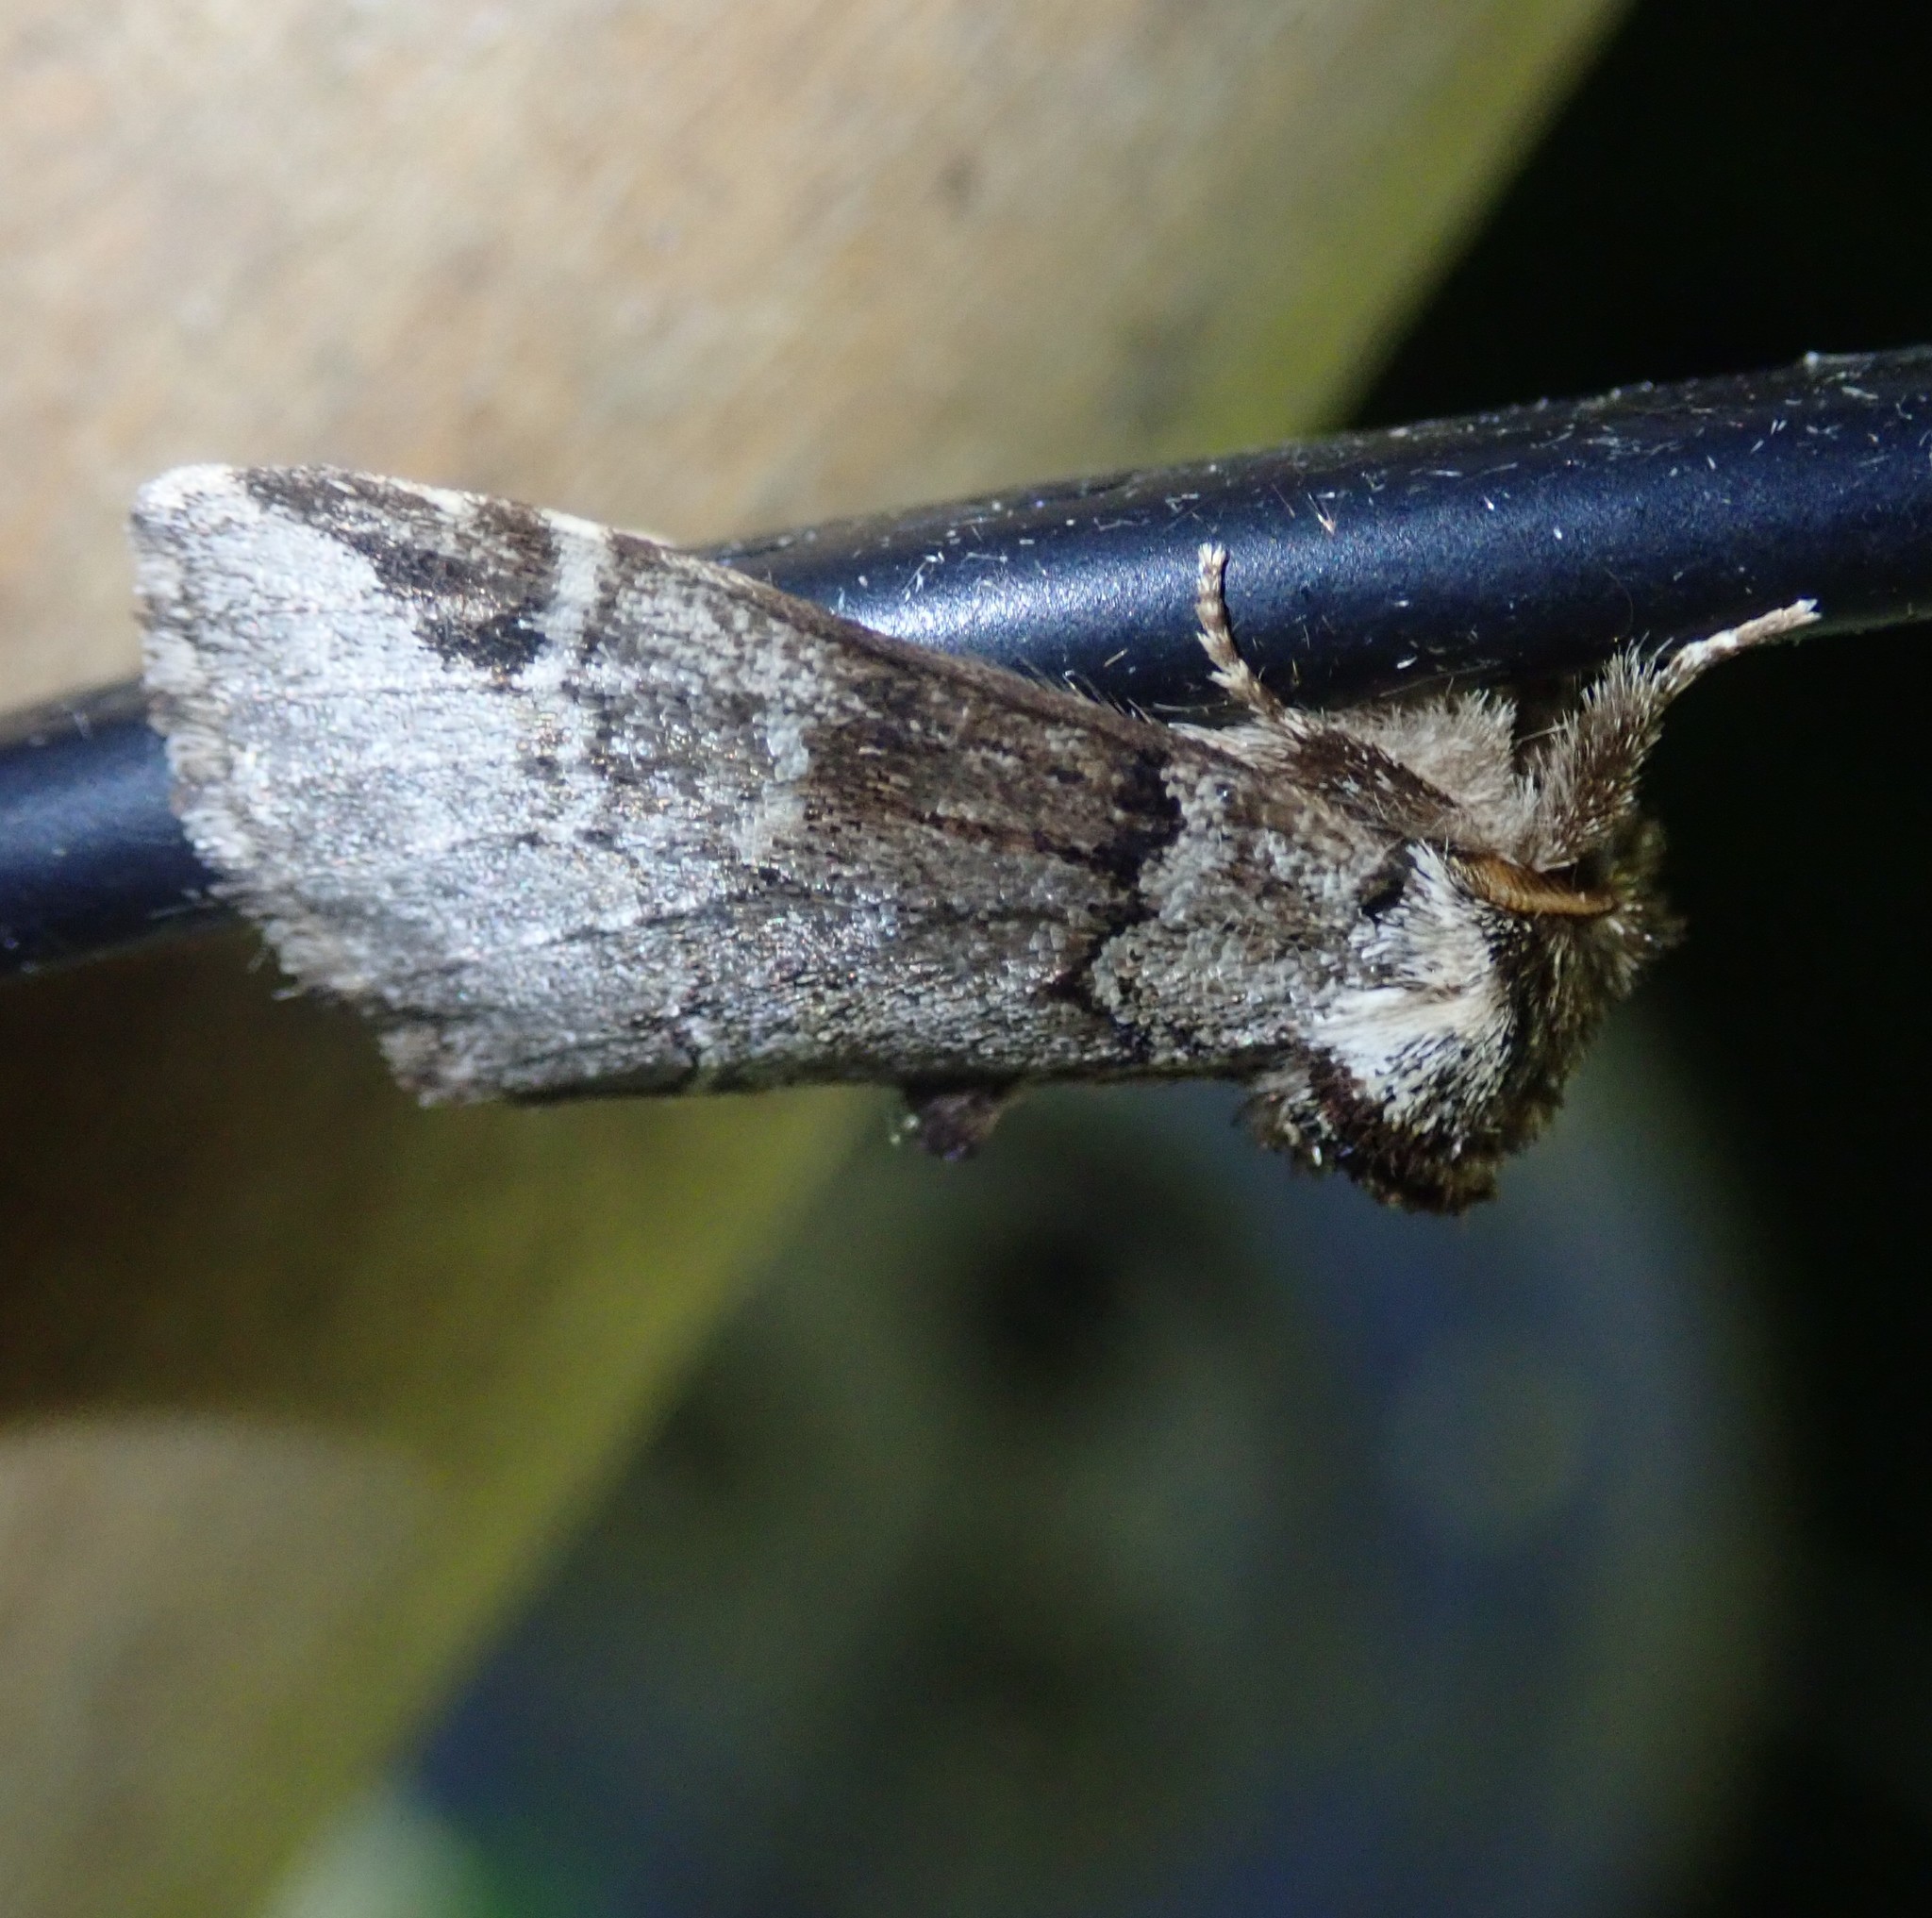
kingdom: Animalia
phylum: Arthropoda
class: Insecta
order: Lepidoptera
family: Notodontidae
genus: Drymonia
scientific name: Drymonia obliterata
